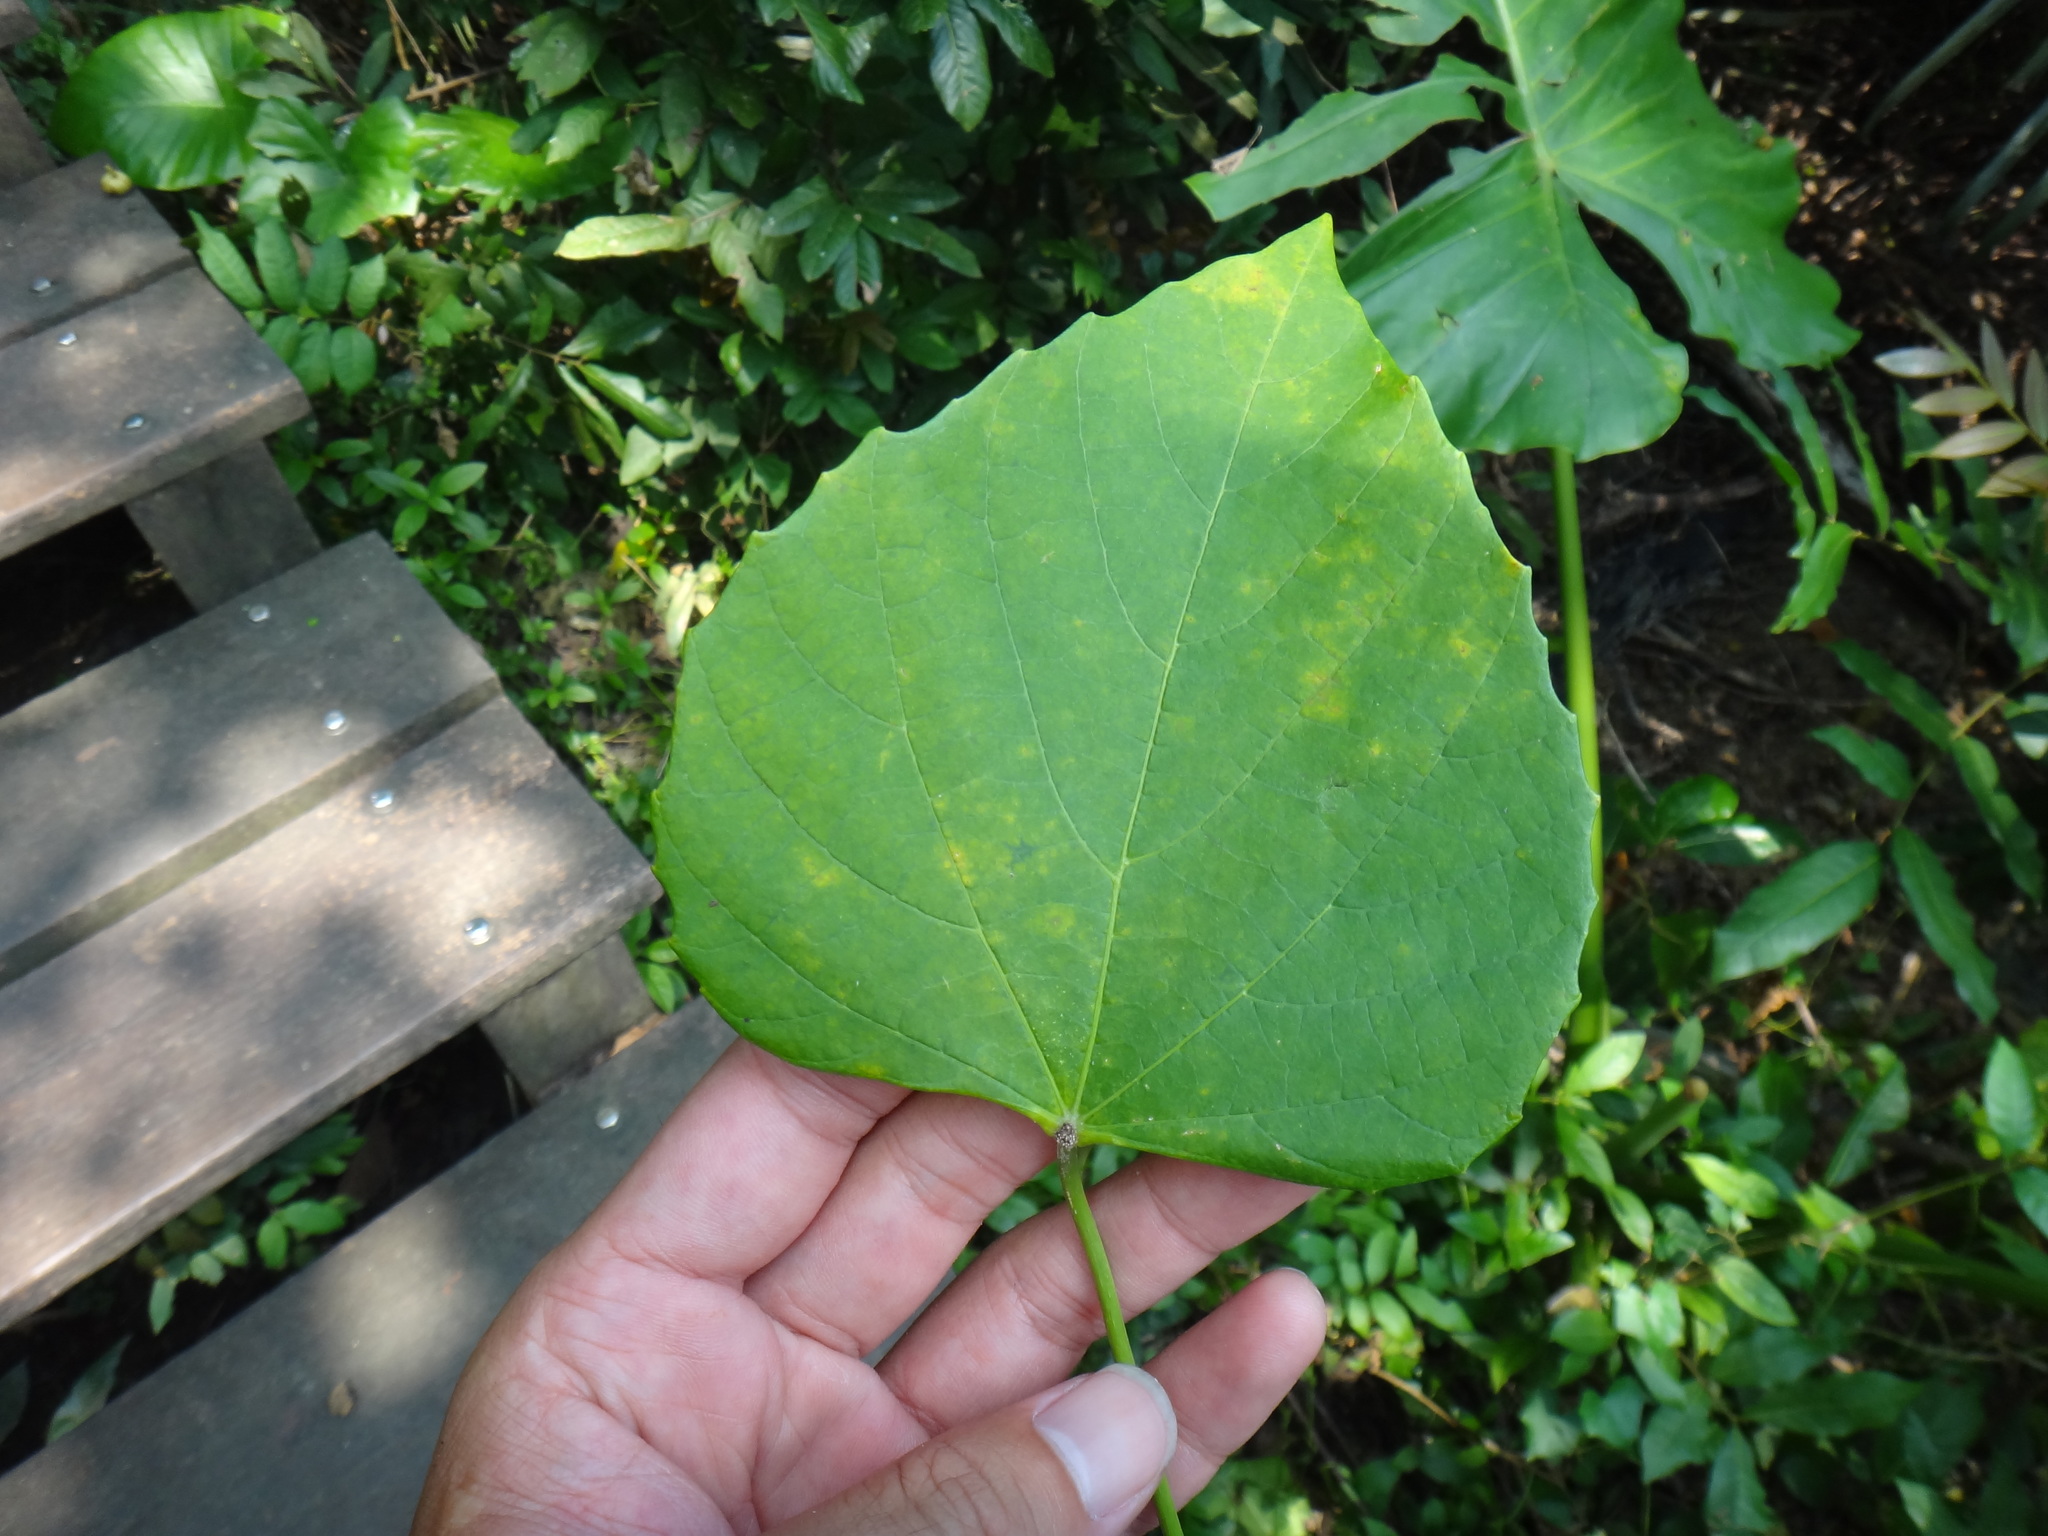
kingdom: Plantae
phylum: Tracheophyta
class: Magnoliopsida
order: Malpighiales
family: Euphorbiaceae
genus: Melanolepis
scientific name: Melanolepis multiglandulosa
